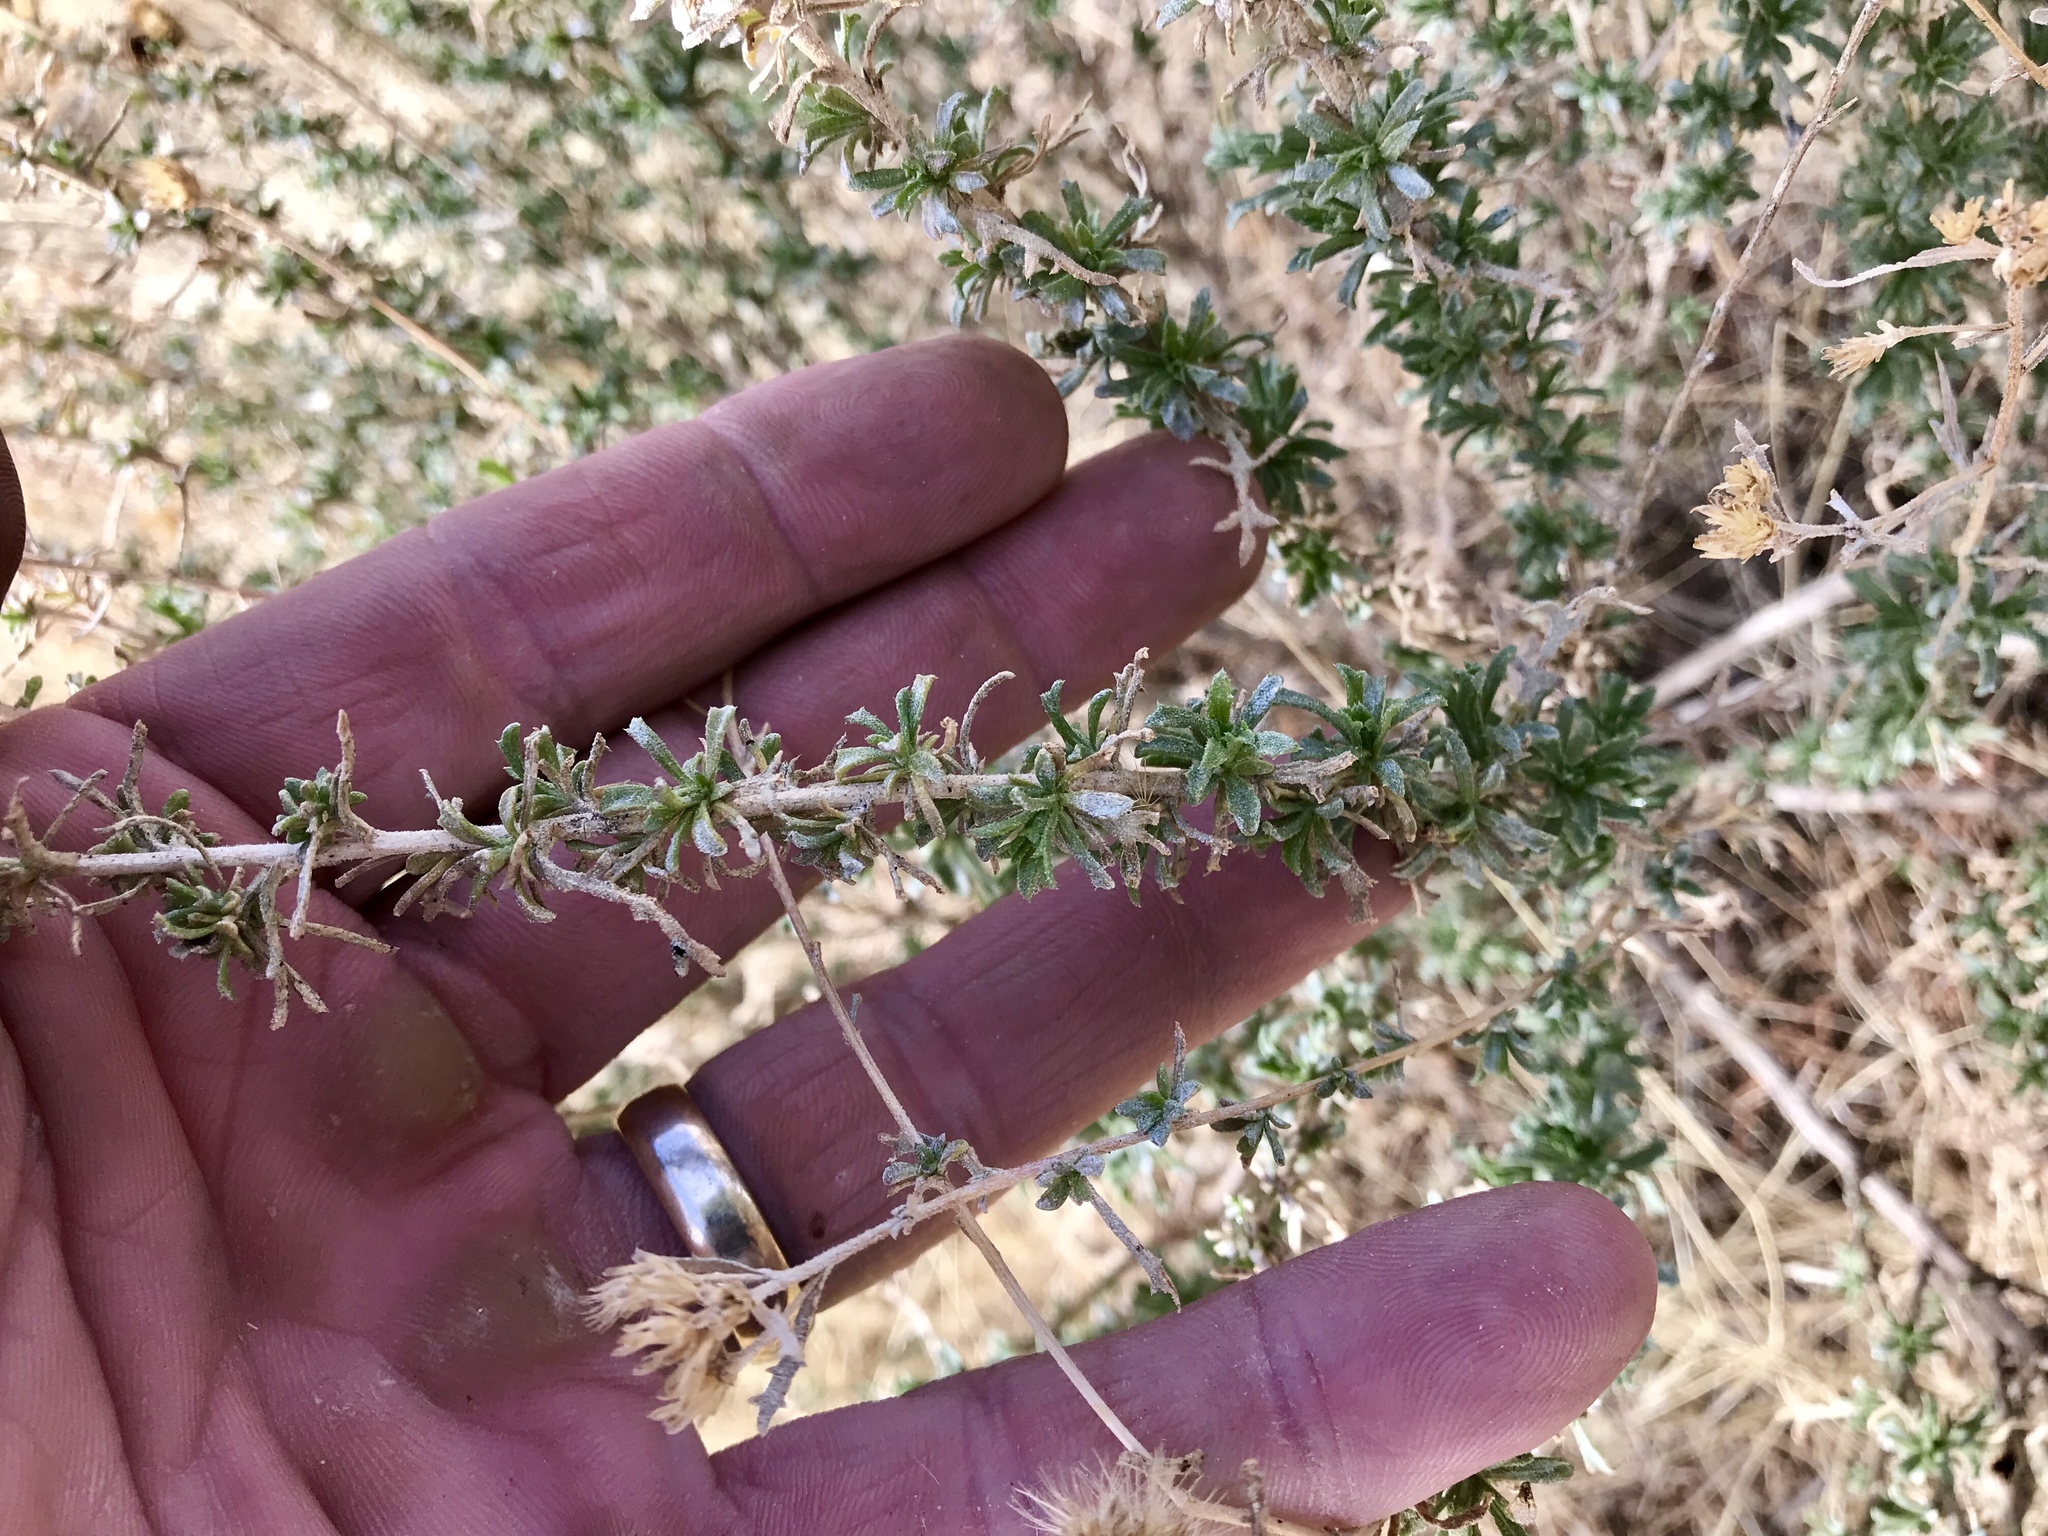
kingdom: Plantae
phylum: Tracheophyta
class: Magnoliopsida
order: Asterales
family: Asteraceae
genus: Baccharis
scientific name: Baccharis pteronioides
